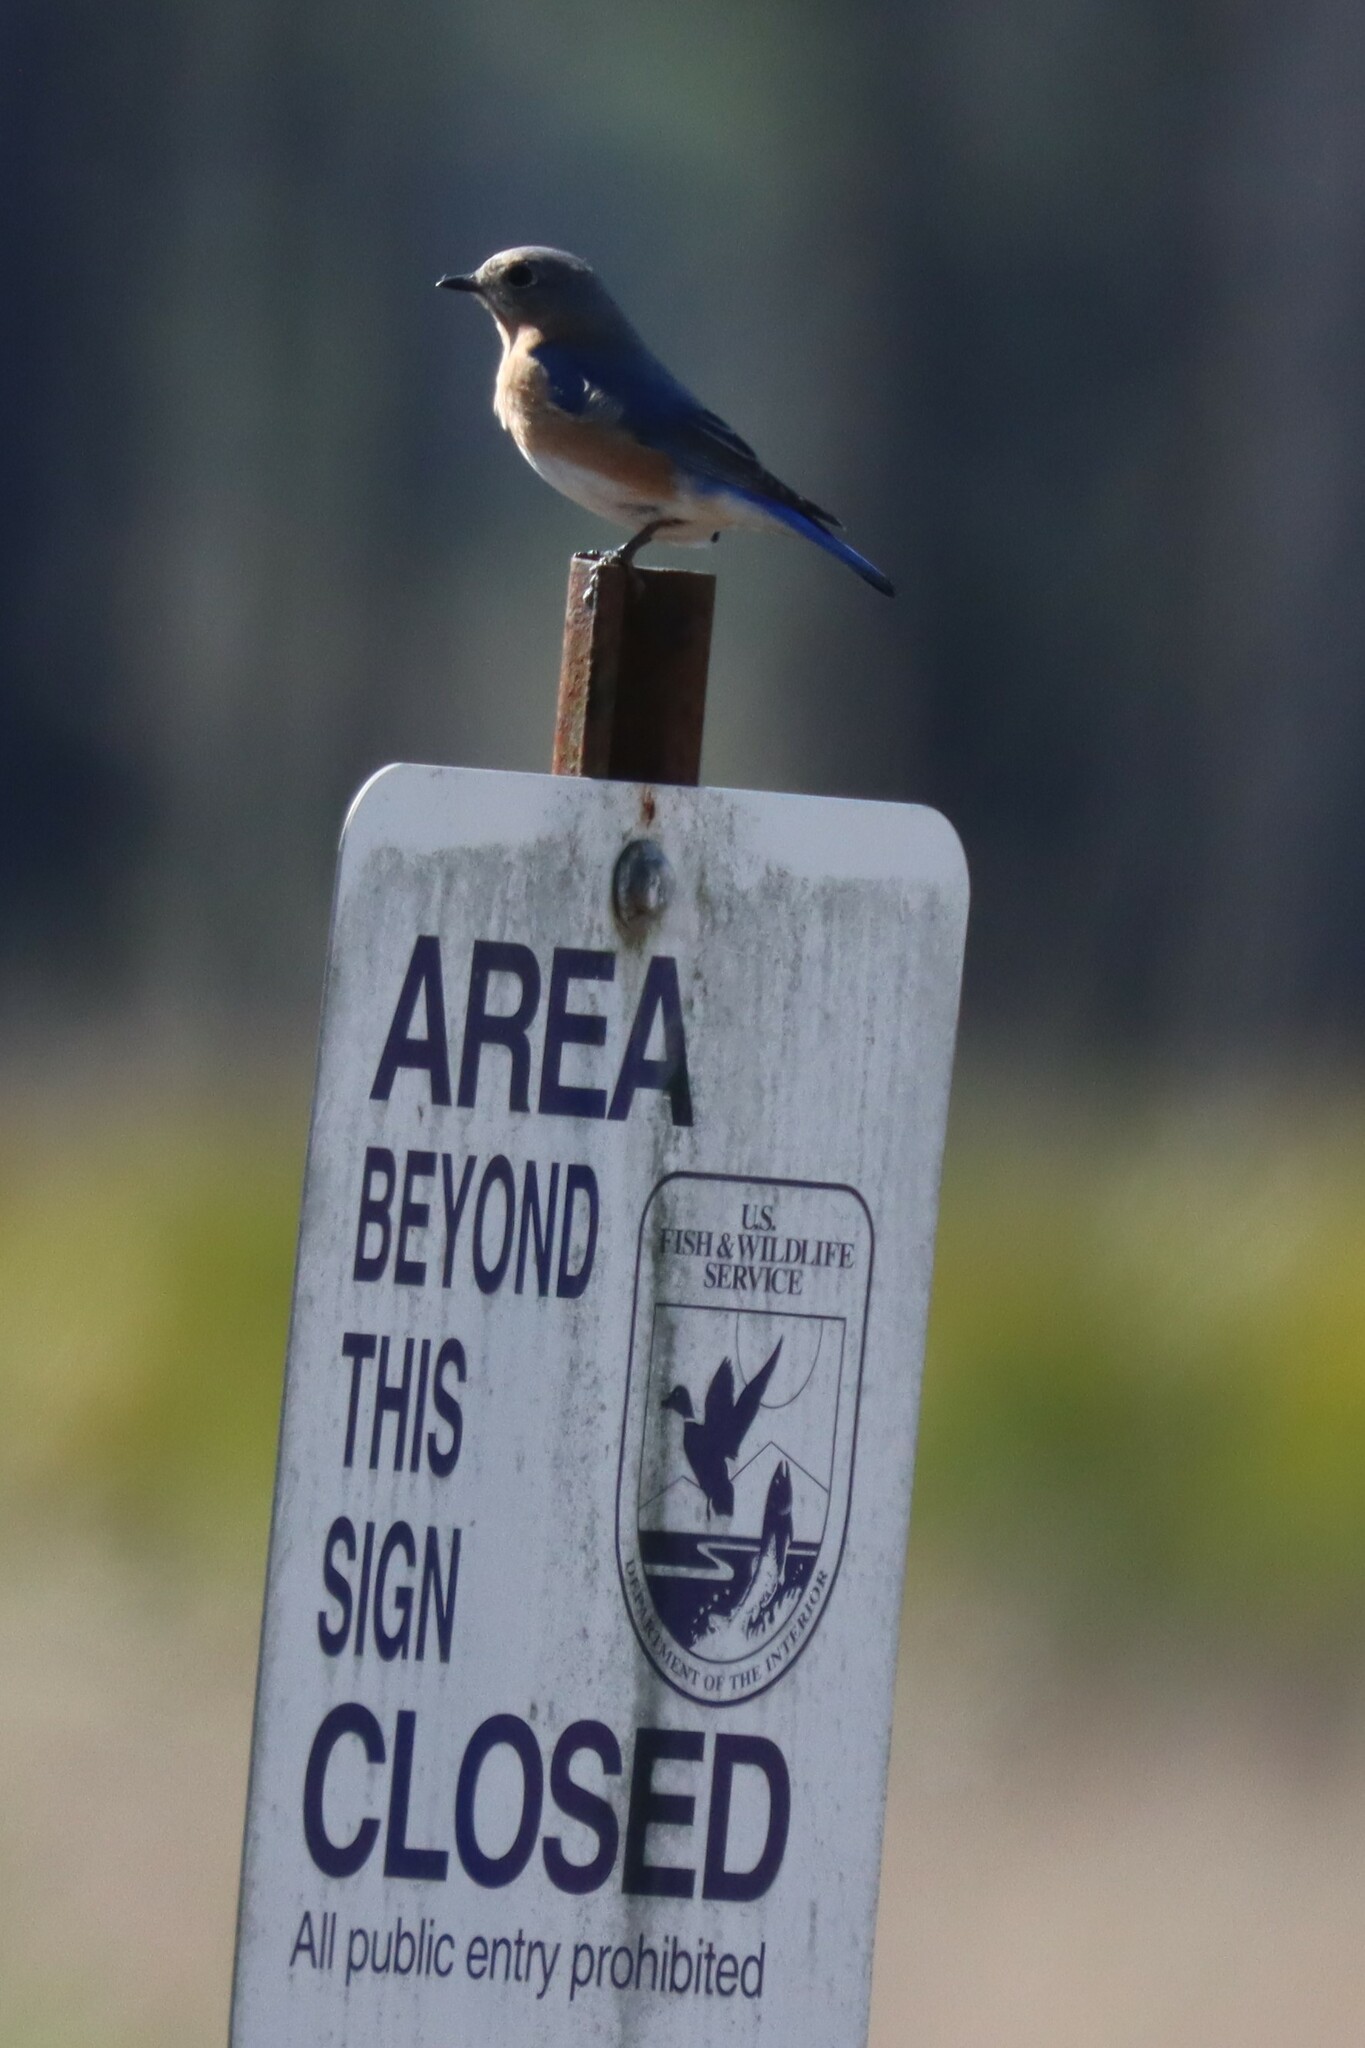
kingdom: Animalia
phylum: Chordata
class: Aves
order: Passeriformes
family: Turdidae
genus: Sialia
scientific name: Sialia sialis
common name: Eastern bluebird
